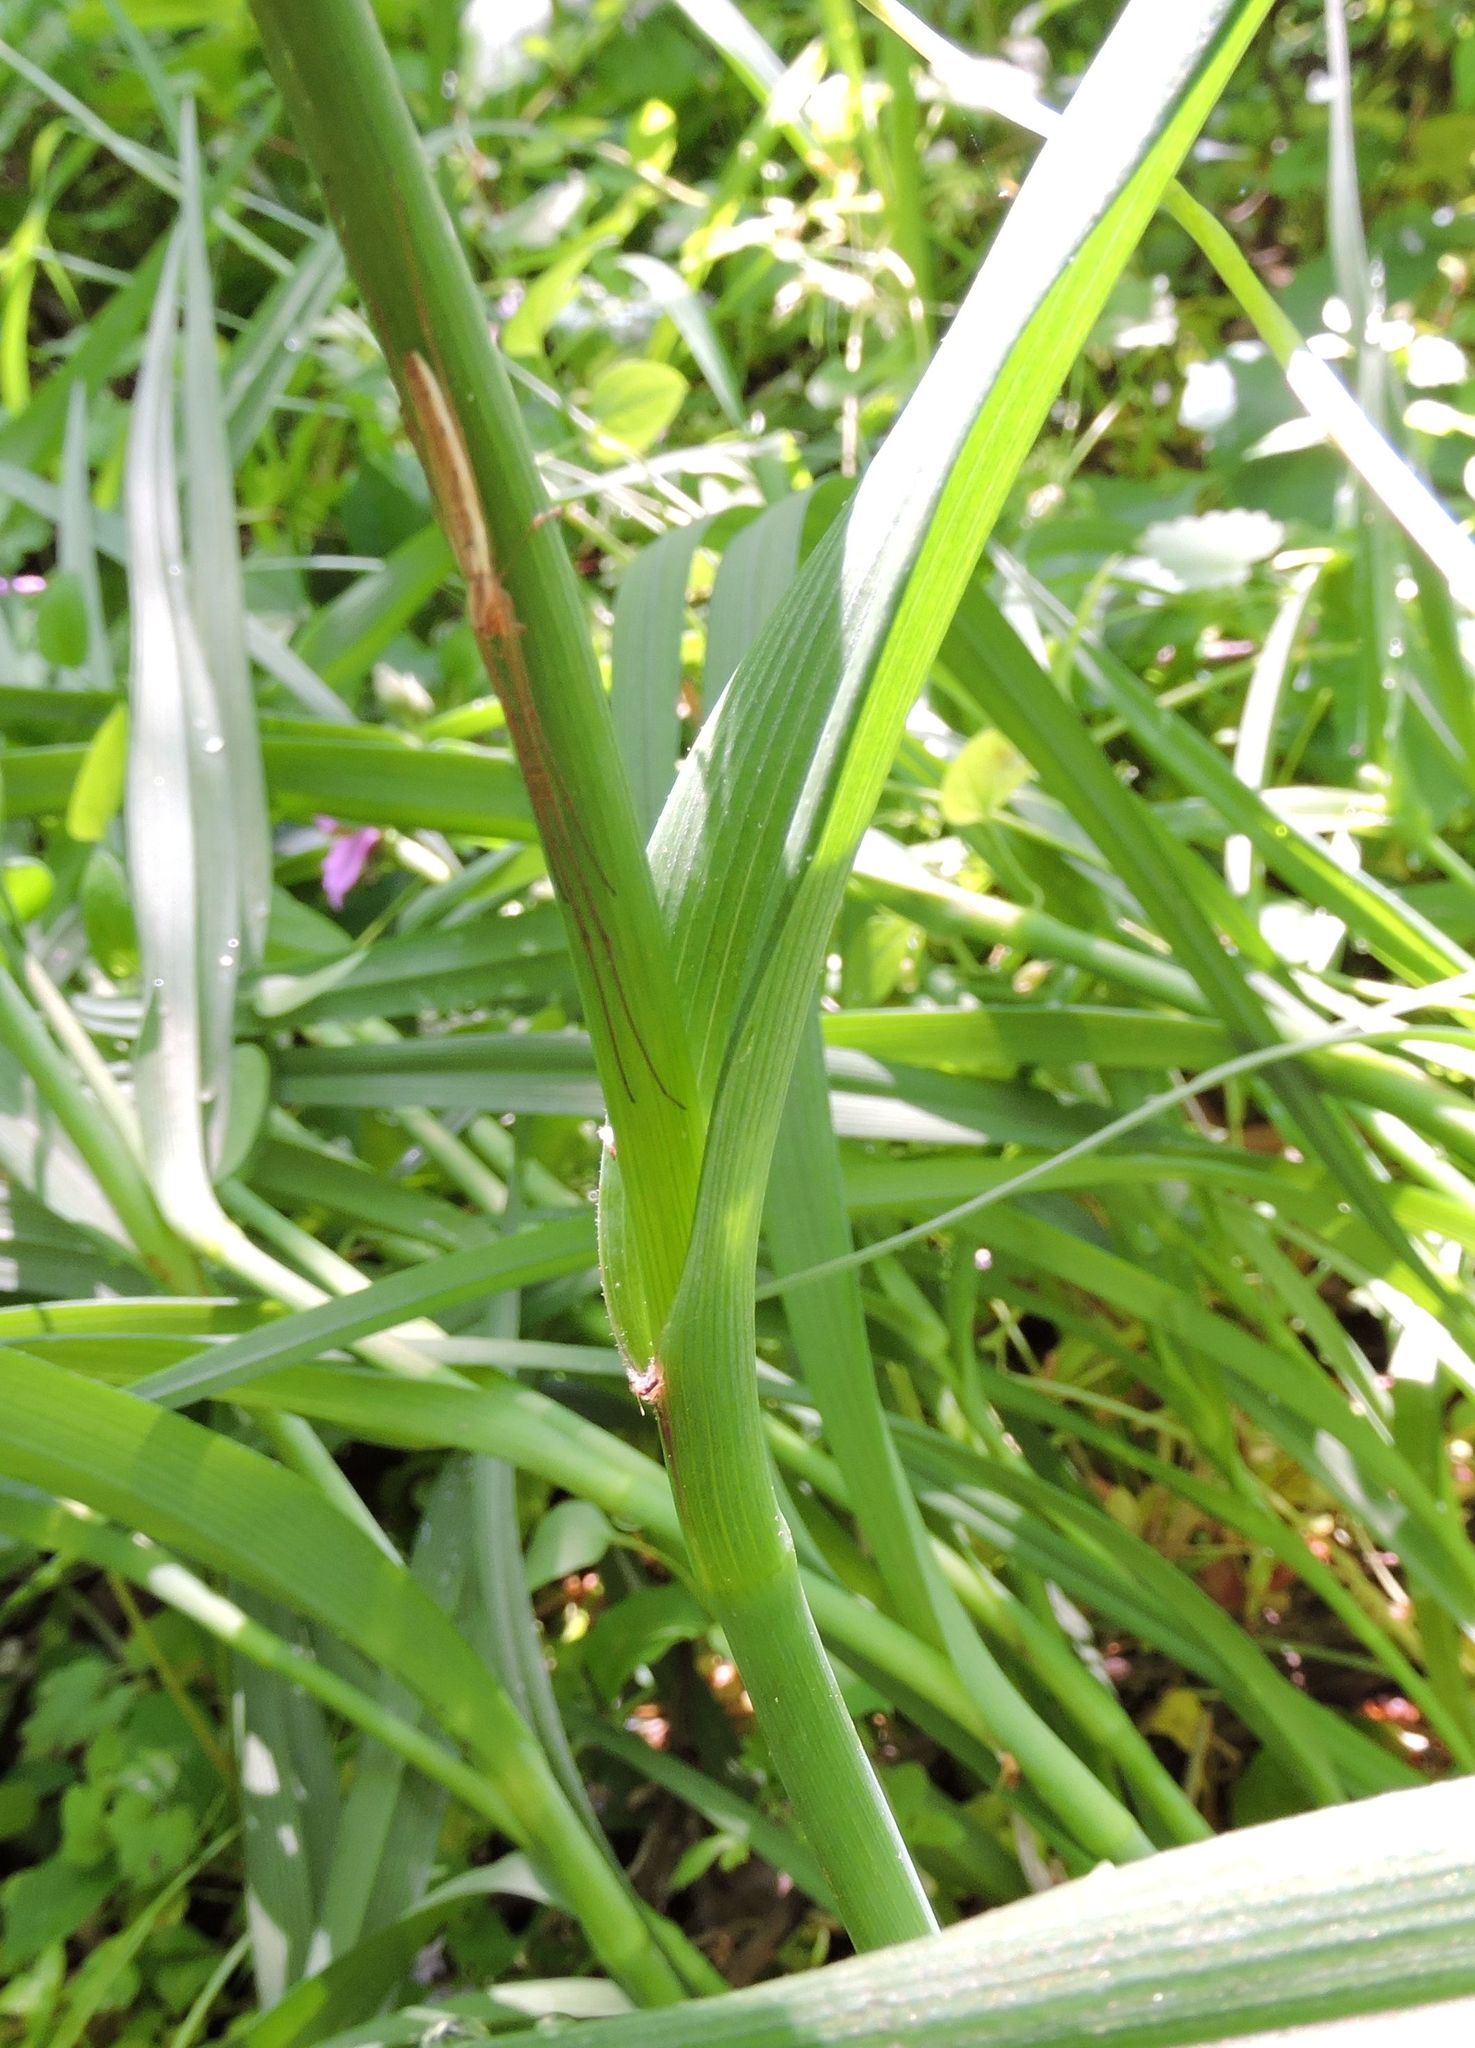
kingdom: Plantae
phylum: Tracheophyta
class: Liliopsida
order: Commelinales
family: Commelinaceae
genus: Tradescantia
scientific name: Tradescantia virginiana
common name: Spiderwort
